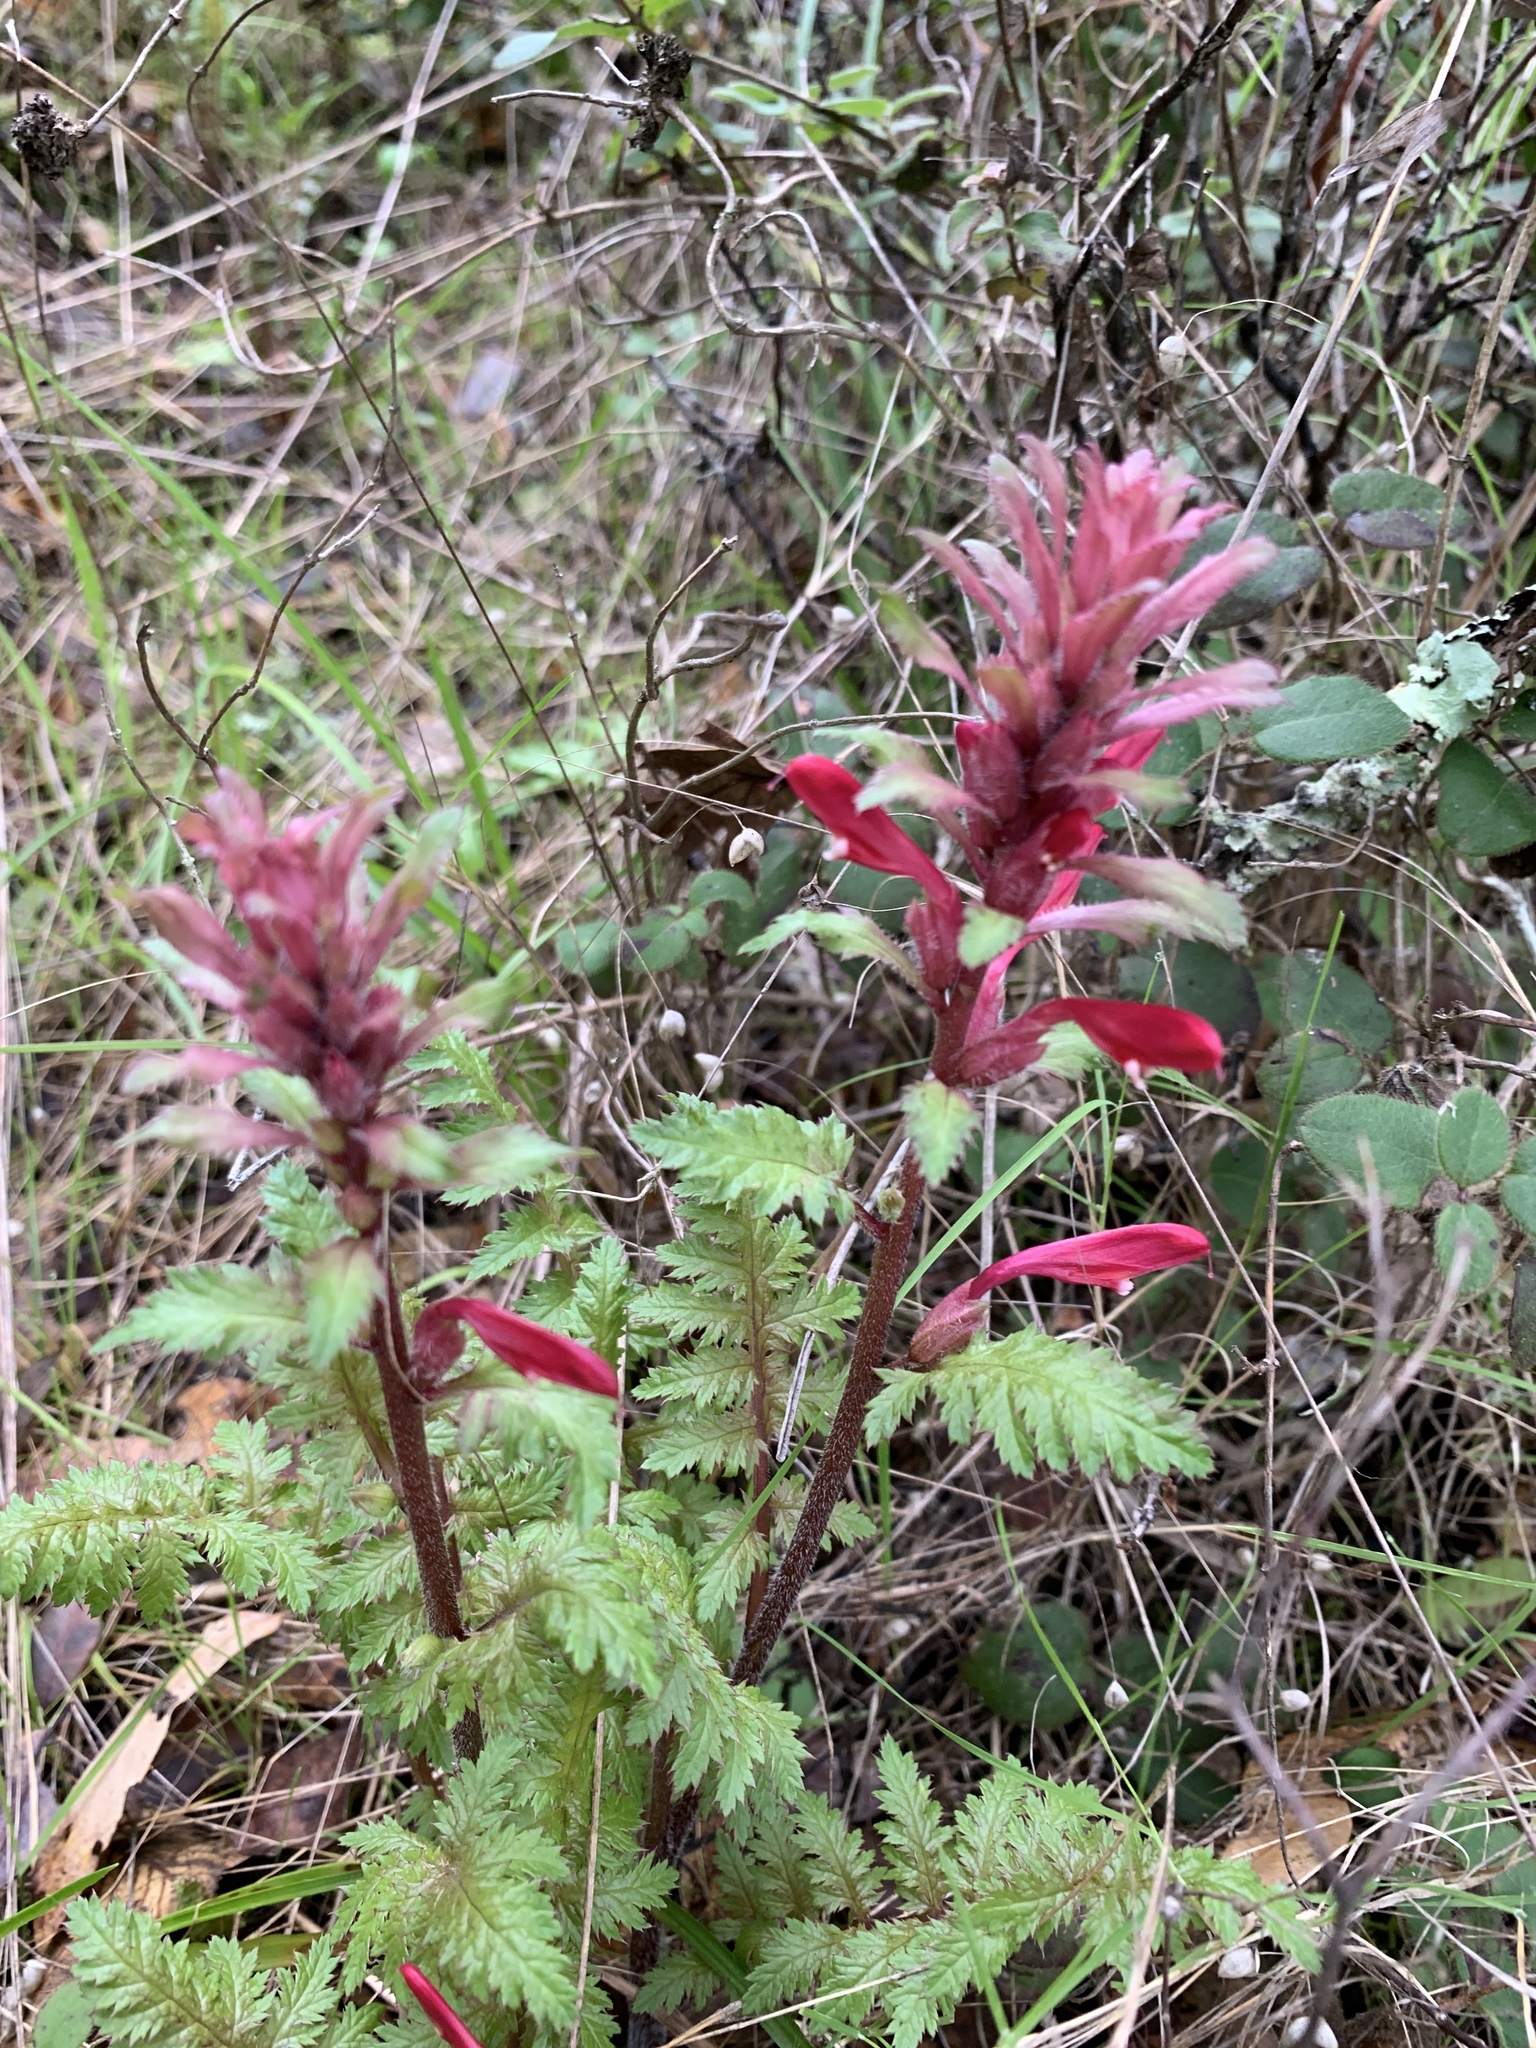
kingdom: Plantae
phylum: Tracheophyta
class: Magnoliopsida
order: Lamiales
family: Orobanchaceae
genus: Pedicularis
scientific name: Pedicularis densiflora
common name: Indian warrior
